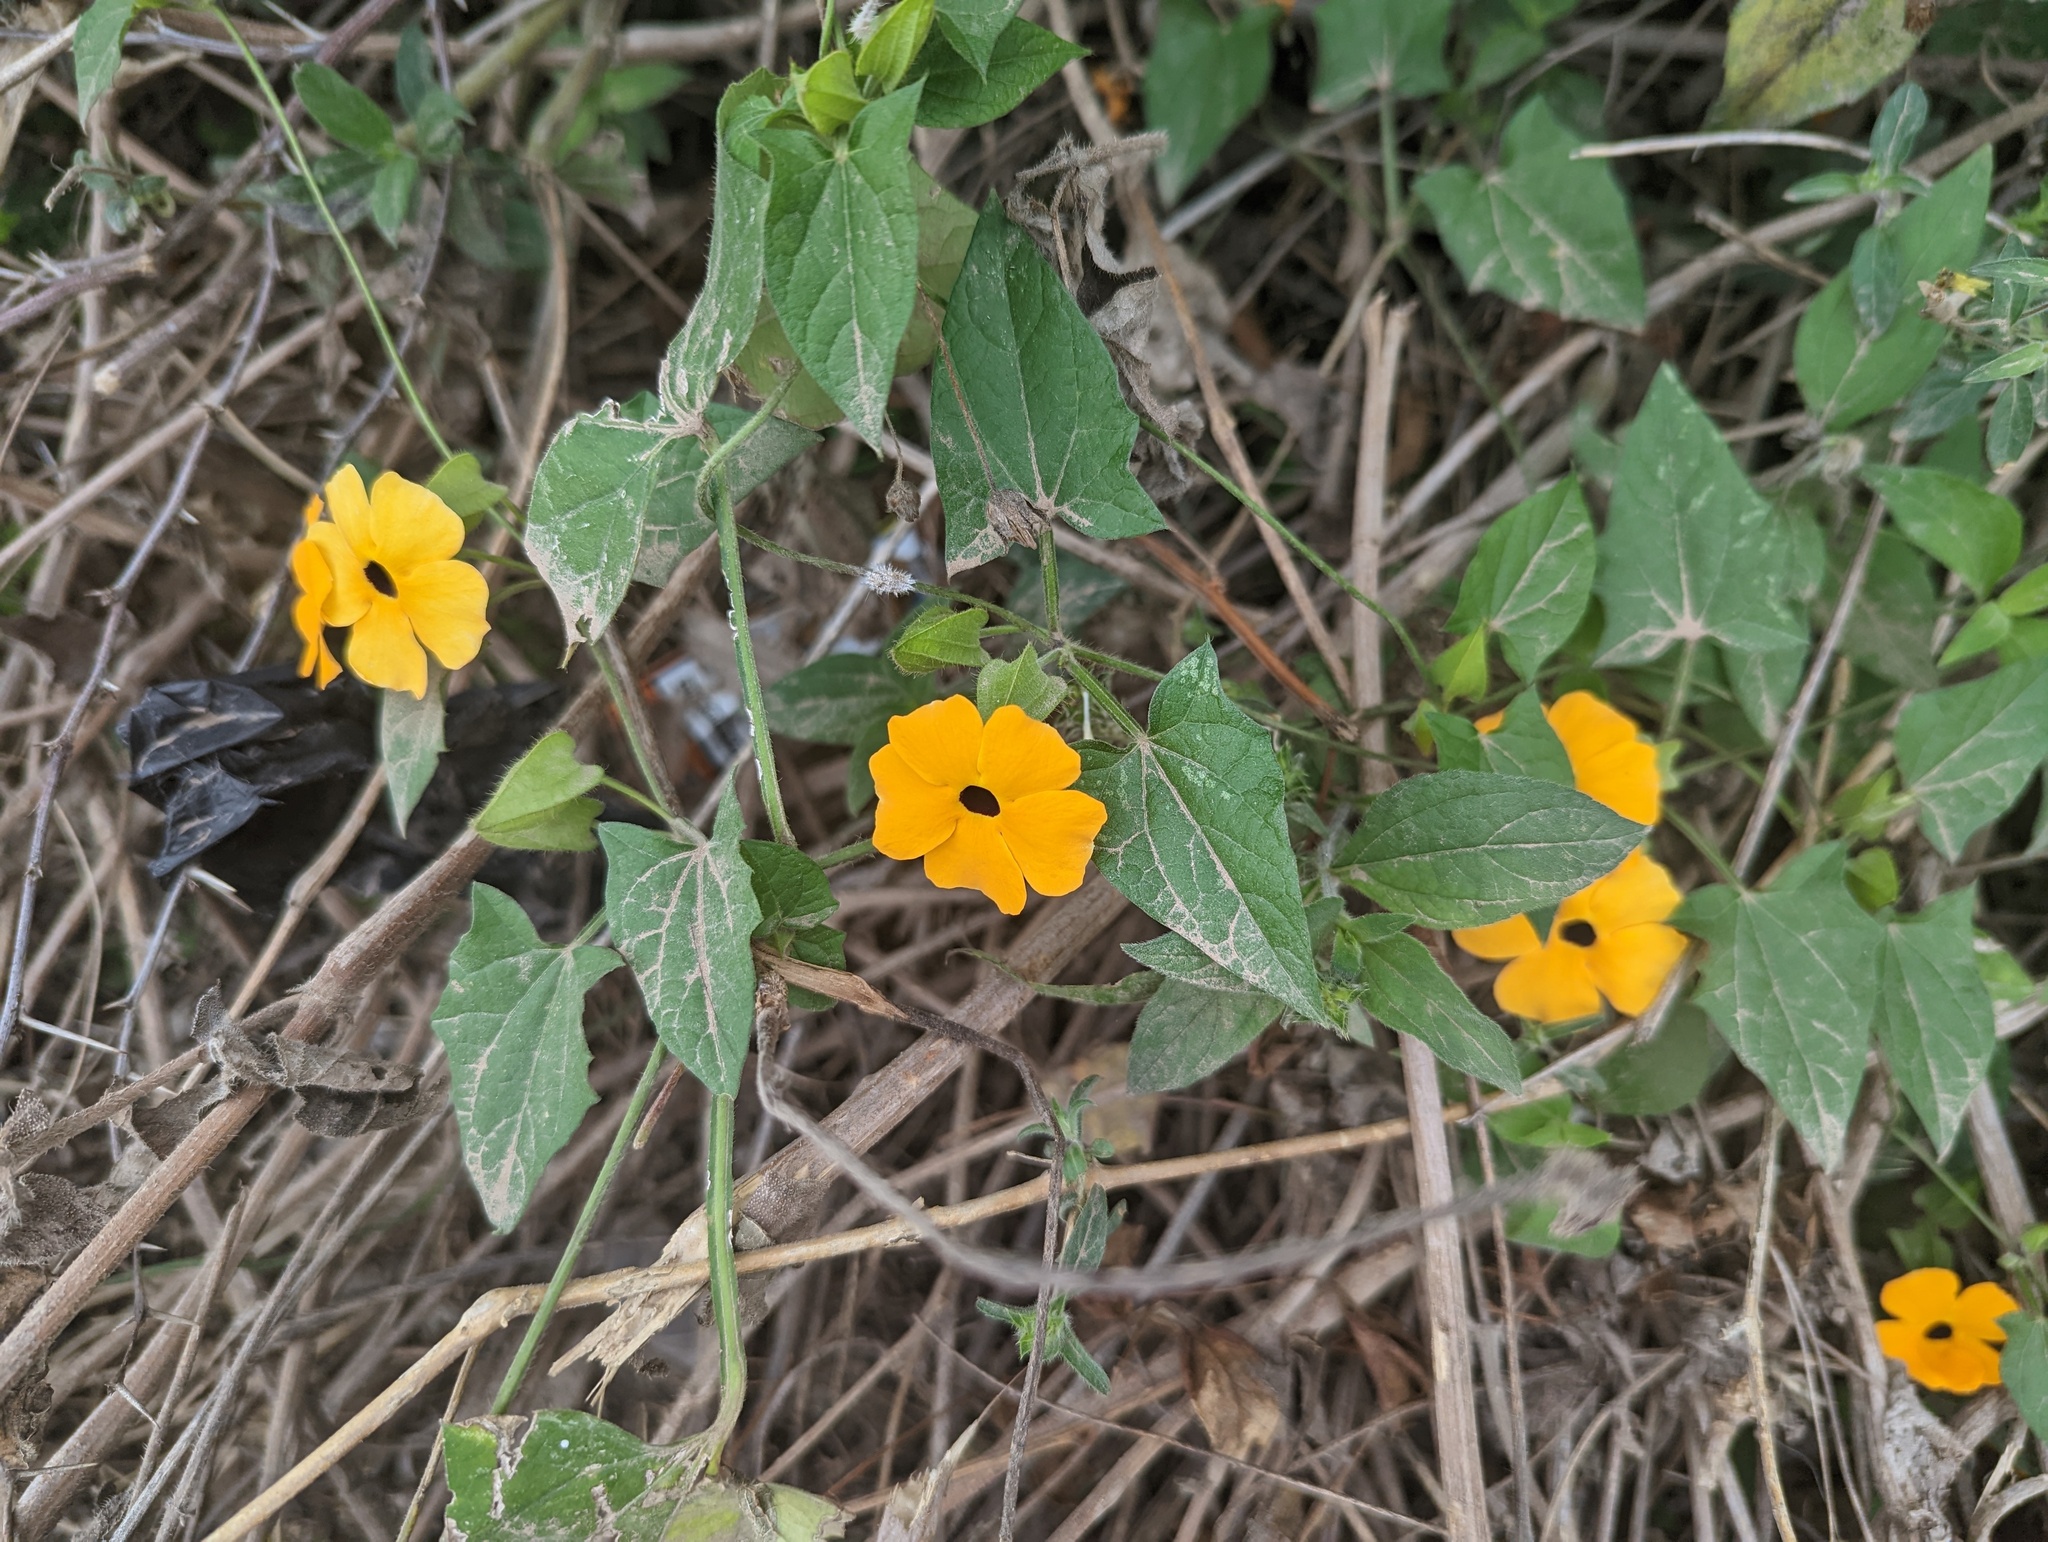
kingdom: Plantae
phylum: Tracheophyta
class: Magnoliopsida
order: Lamiales
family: Acanthaceae
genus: Thunbergia
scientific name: Thunbergia alata
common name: Blackeyed susan vine
